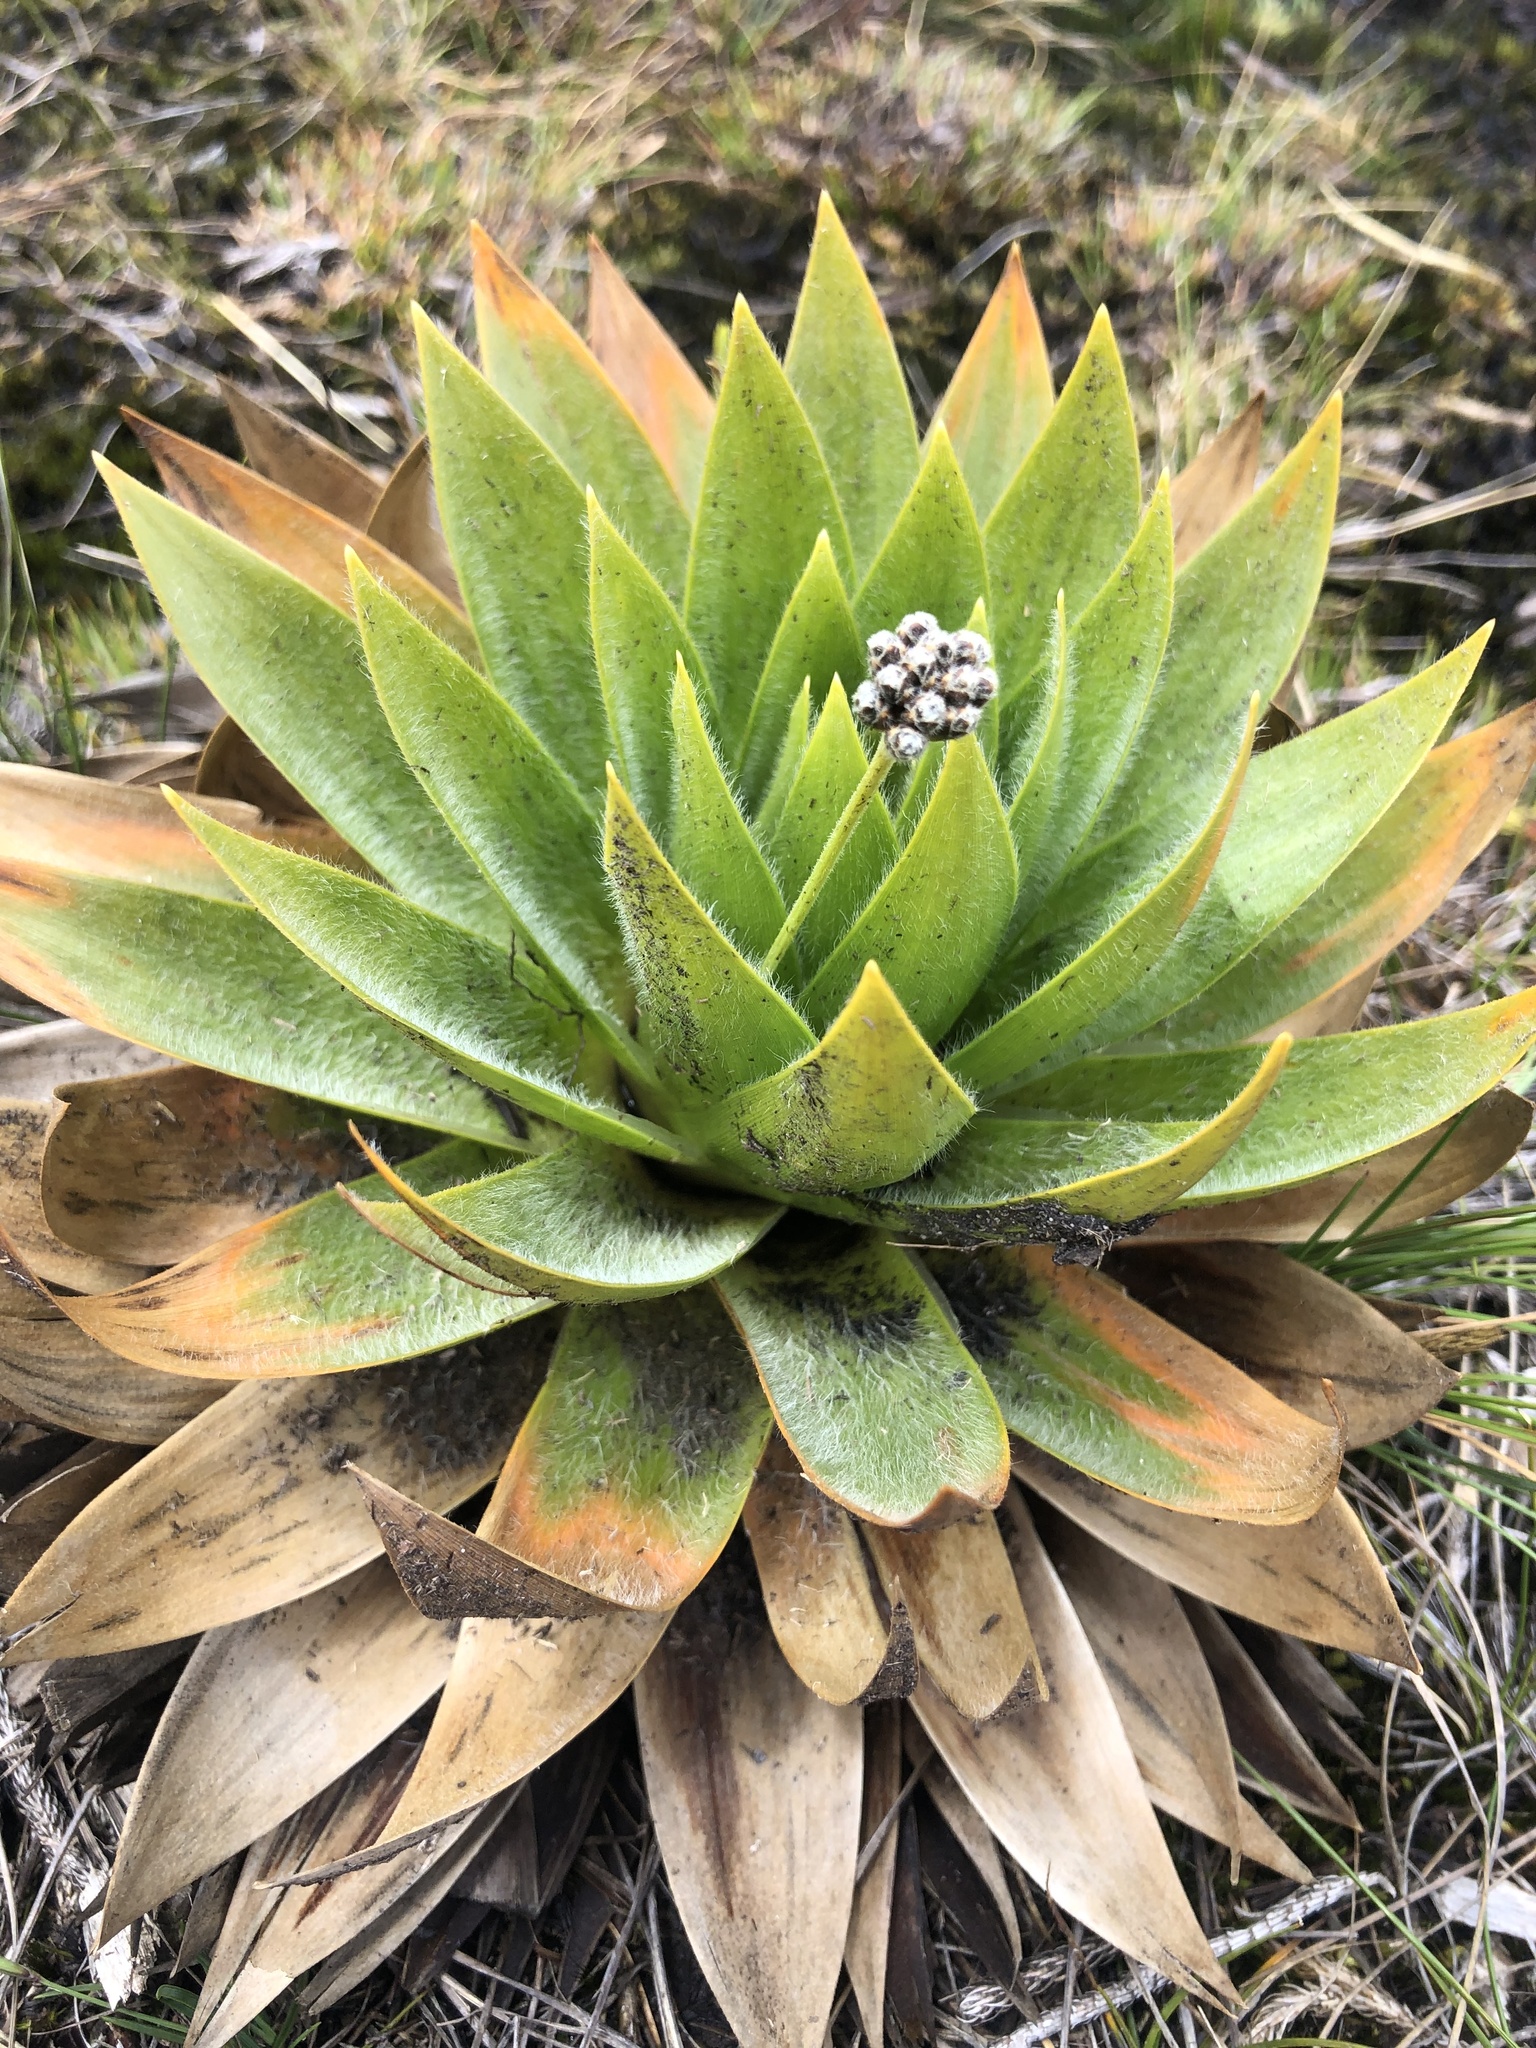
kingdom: Plantae
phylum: Tracheophyta
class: Liliopsida
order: Poales
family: Eriocaulaceae
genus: Paepalanthus
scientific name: Paepalanthus alpinus
